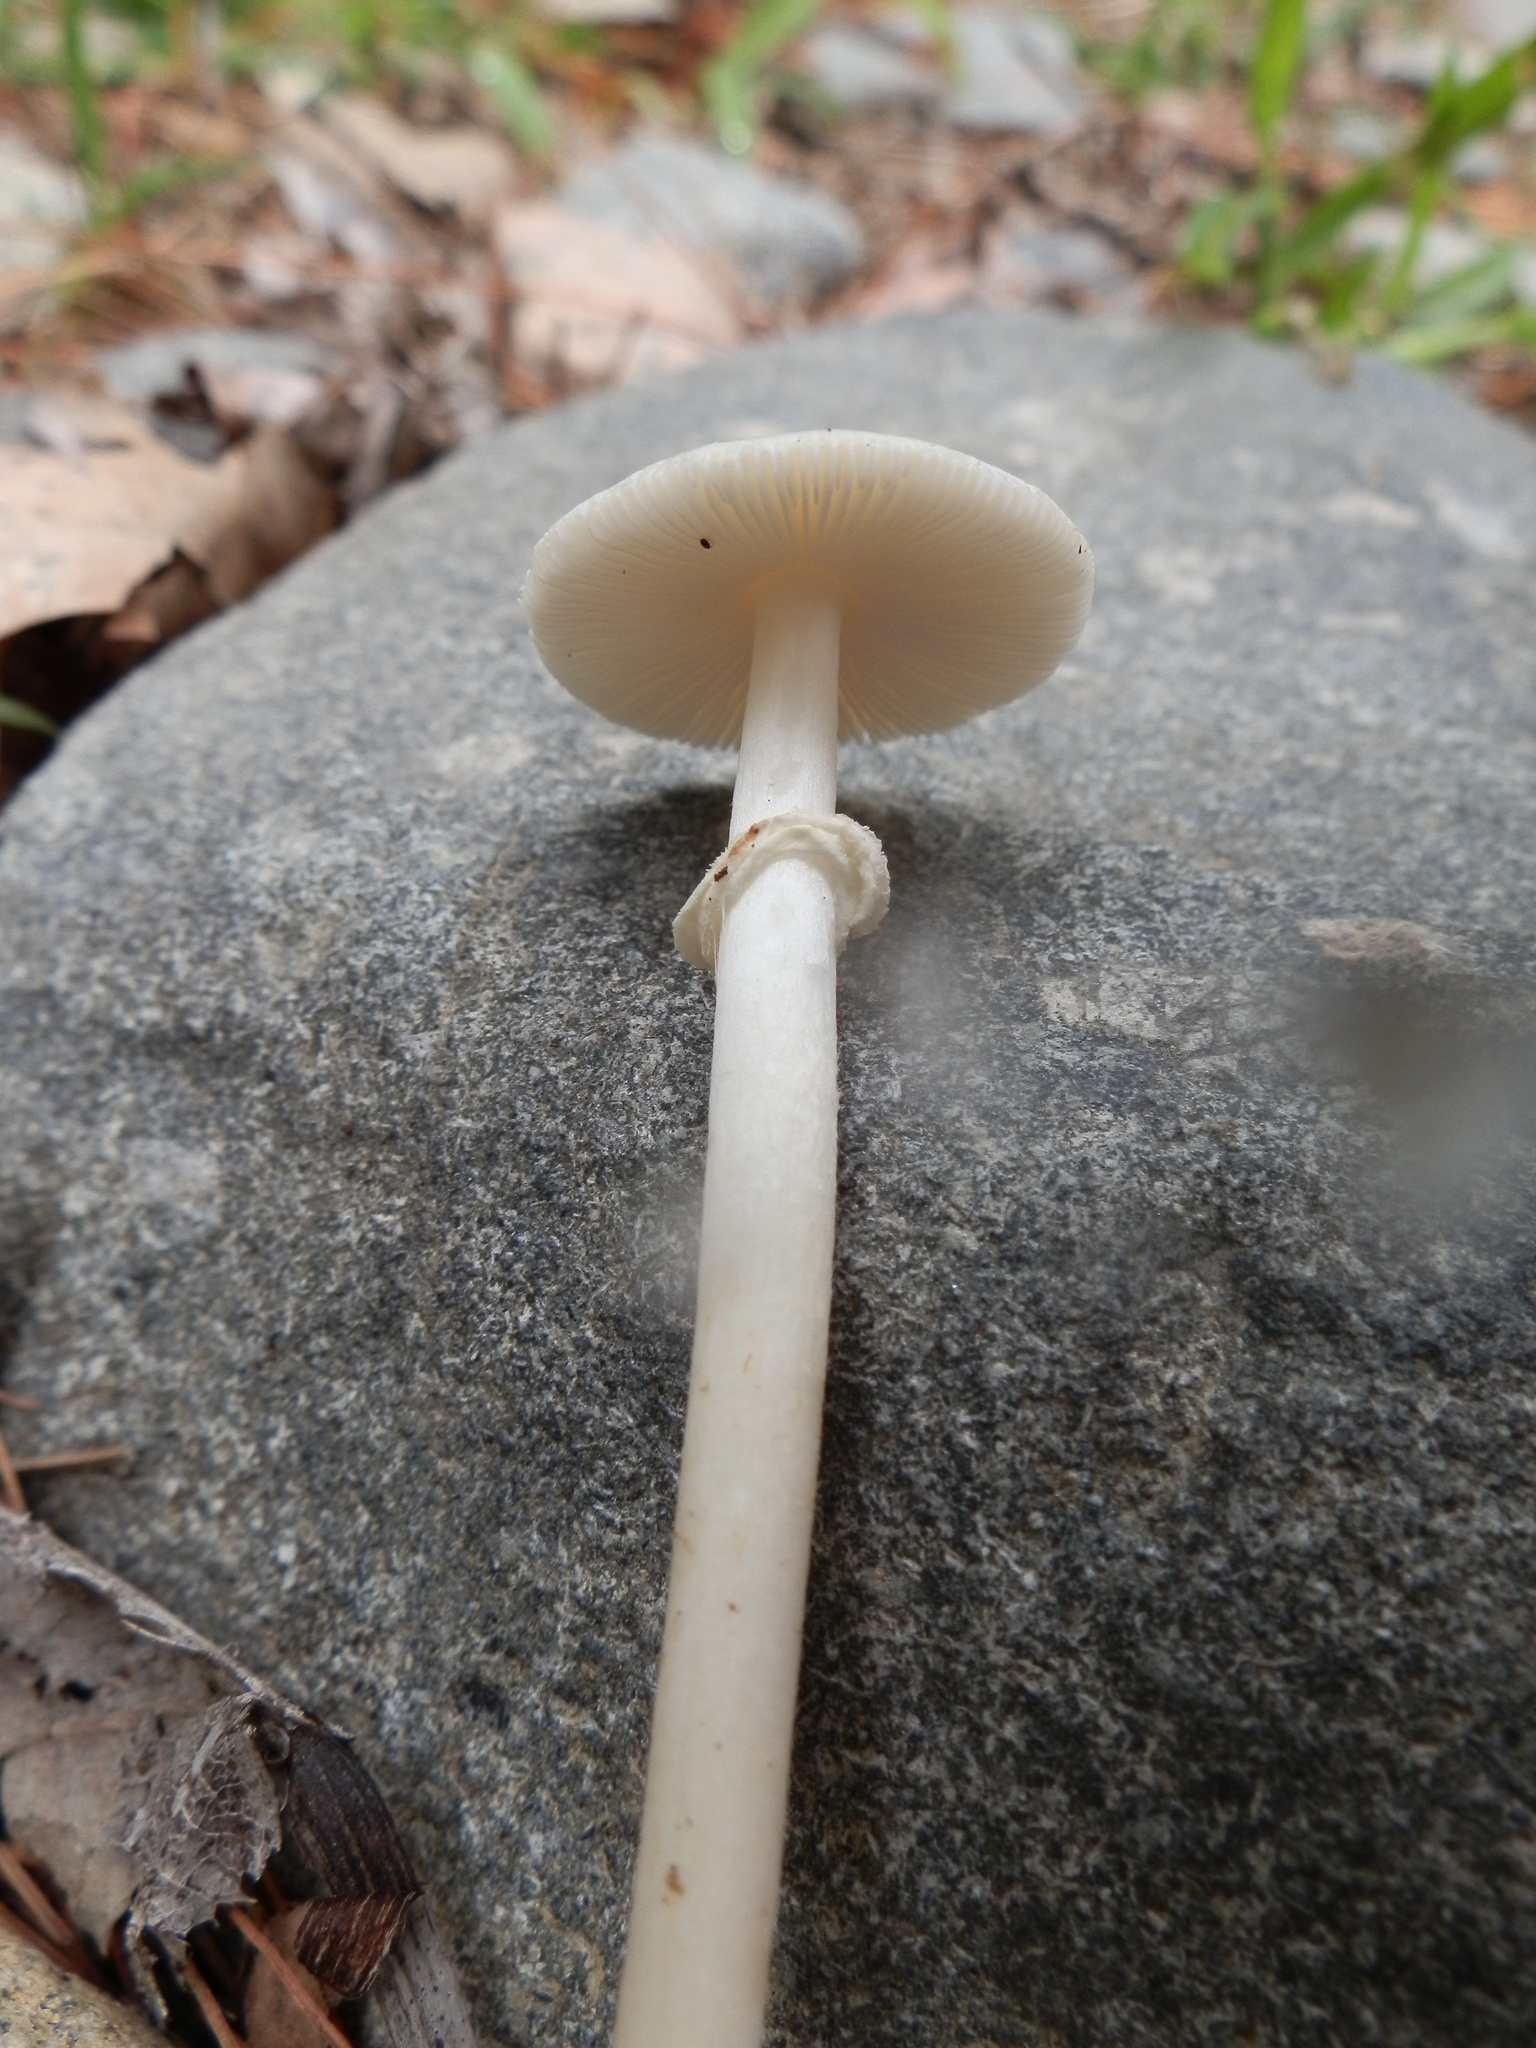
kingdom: Fungi
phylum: Basidiomycota
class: Agaricomycetes
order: Agaricales
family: Amanitaceae
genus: Amanita
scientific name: Amanita solaniolens
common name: Old potato amanita
